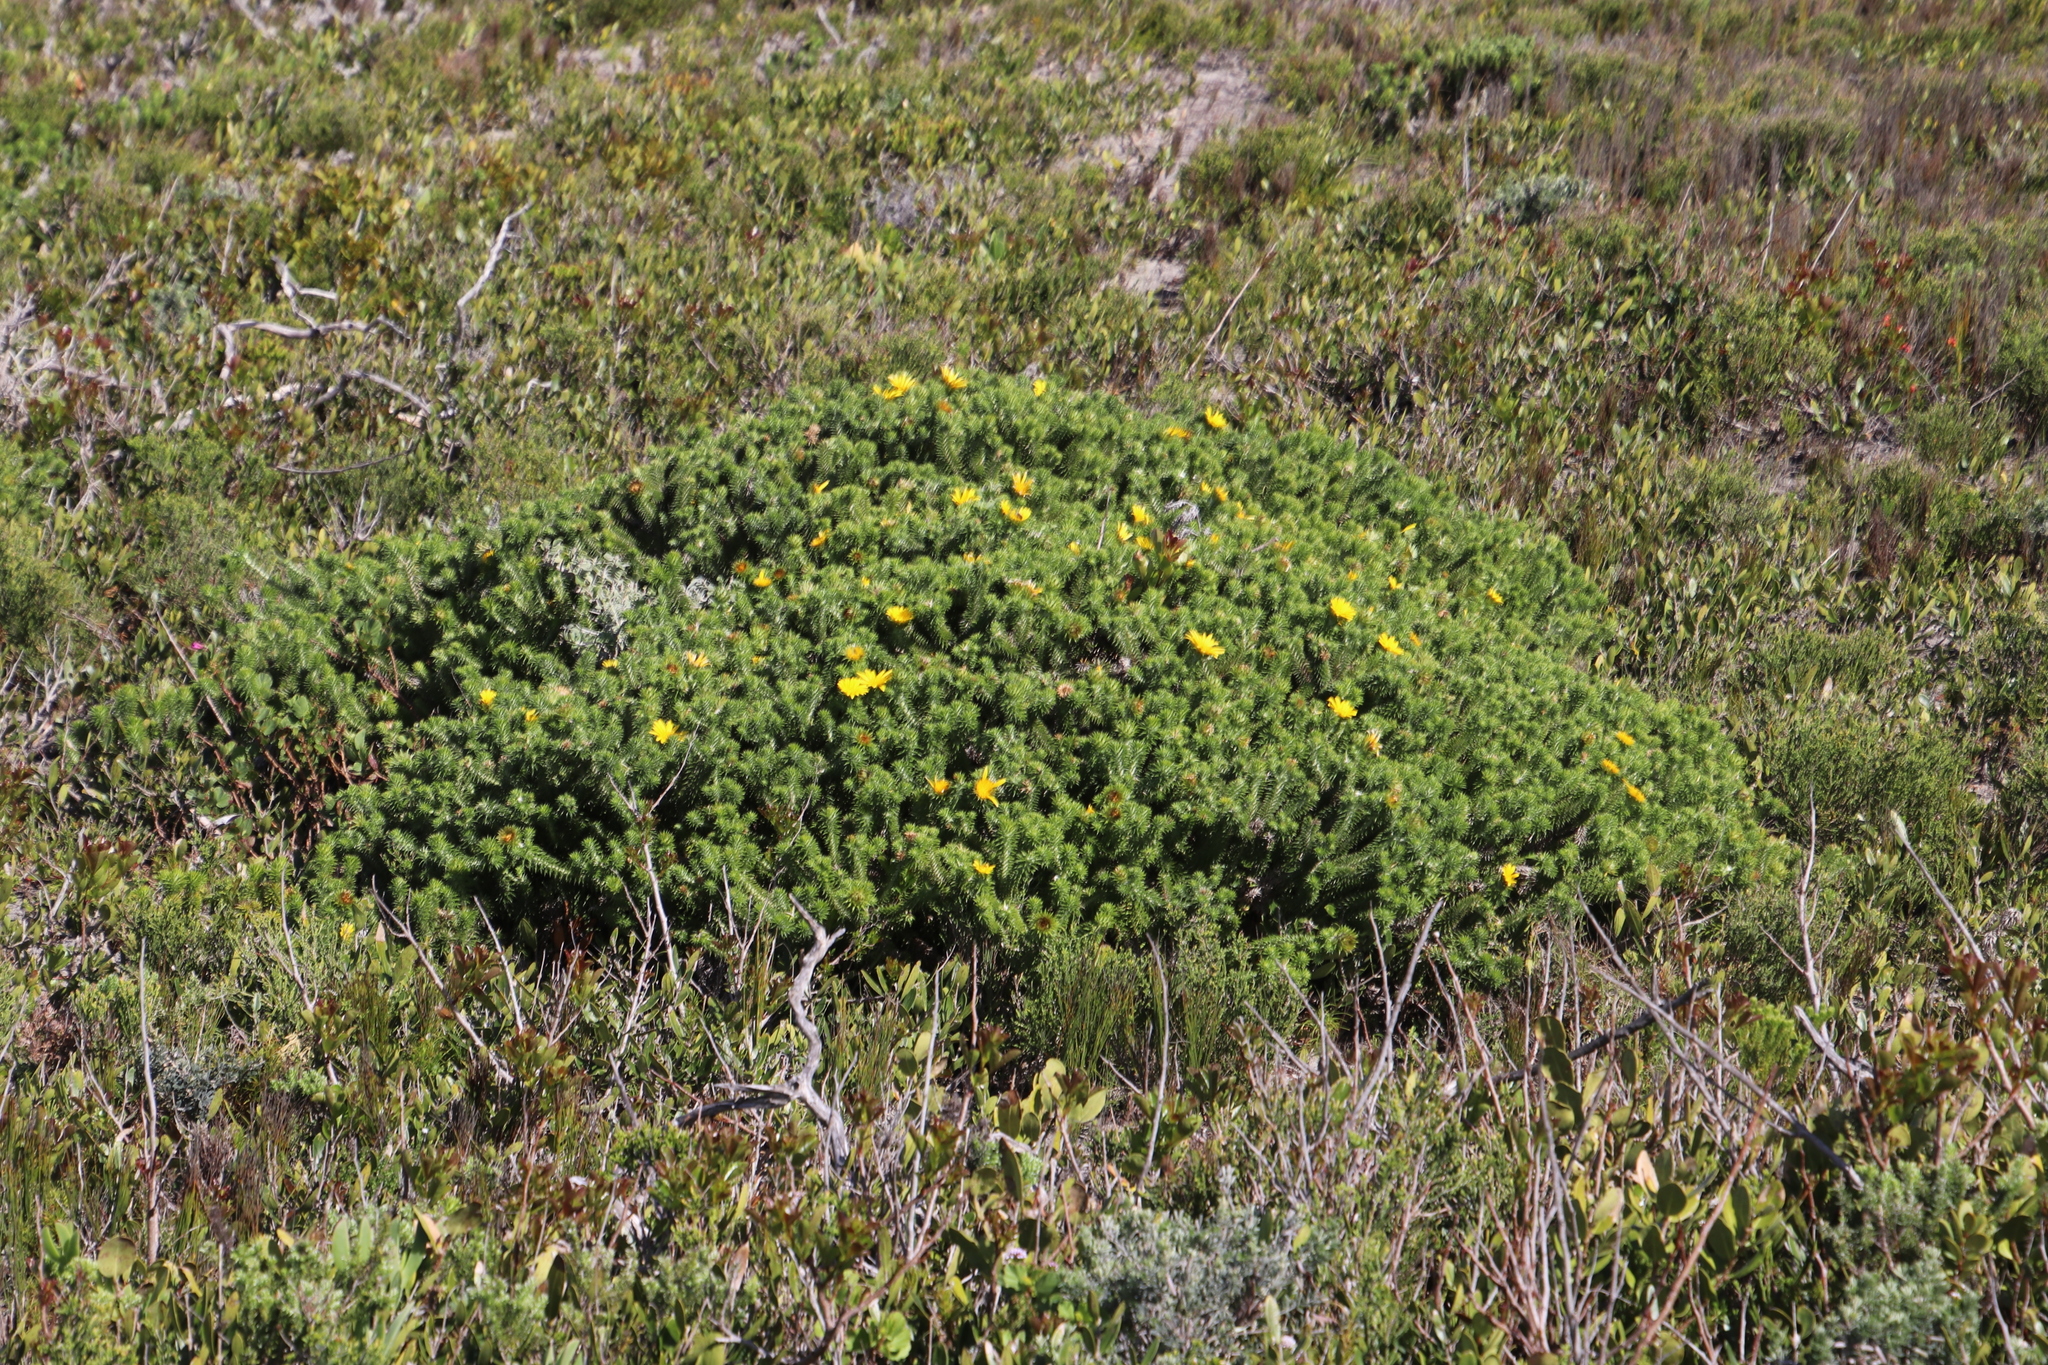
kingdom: Plantae
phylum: Tracheophyta
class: Magnoliopsida
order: Asterales
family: Asteraceae
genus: Cullumia
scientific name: Cullumia squarrosa
